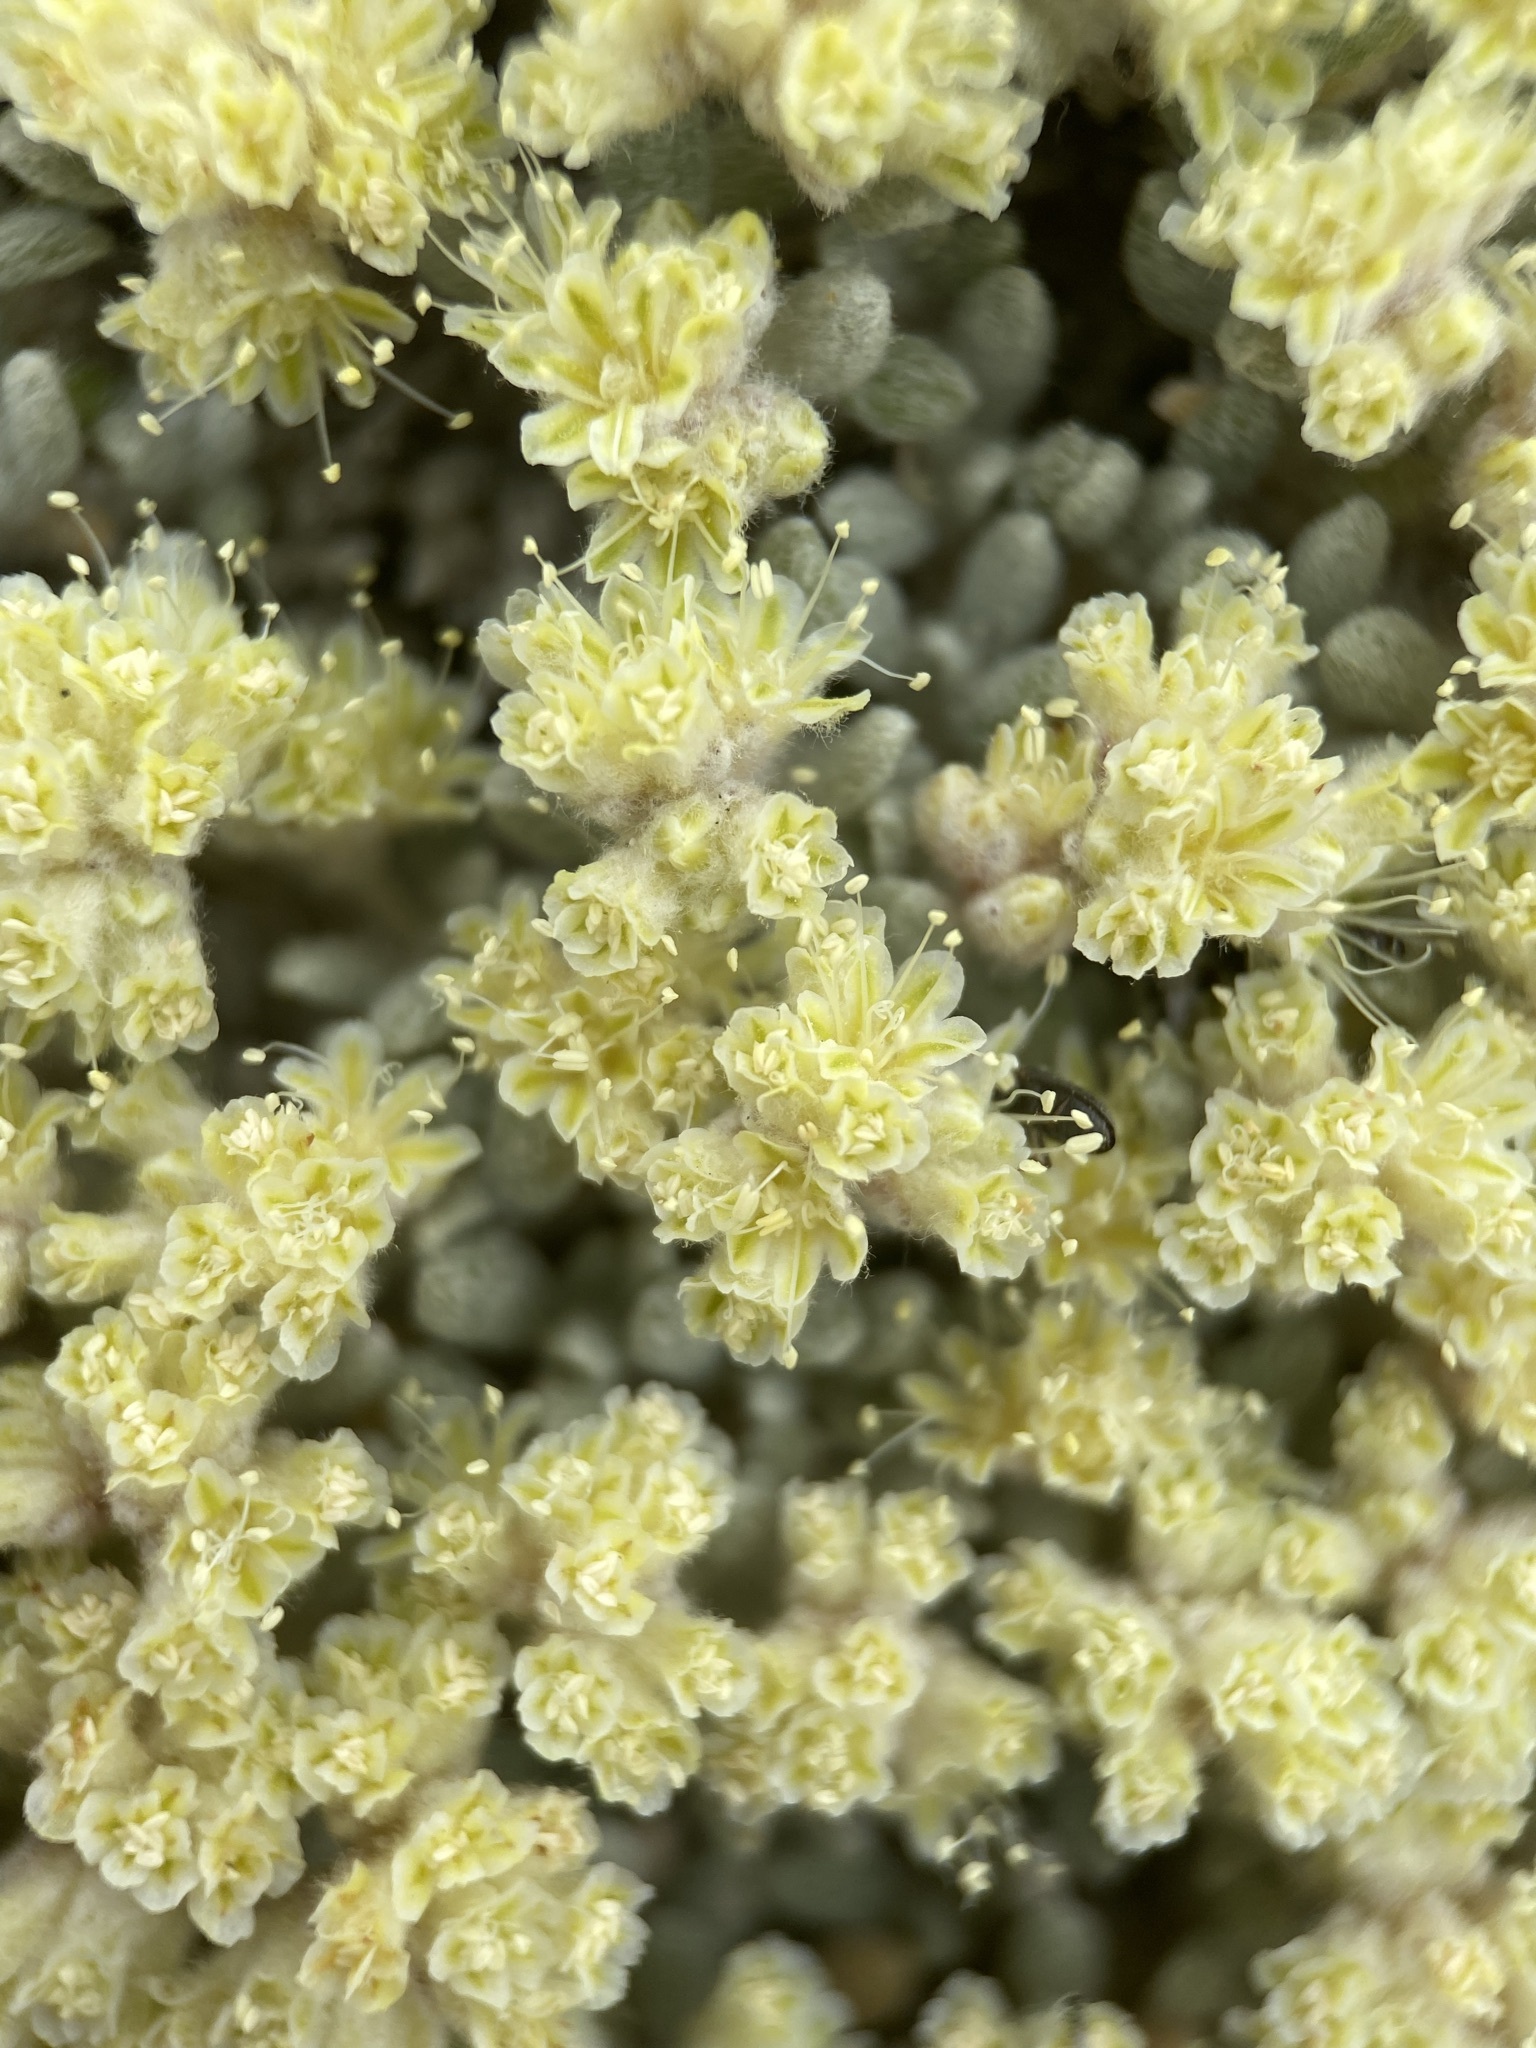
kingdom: Plantae
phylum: Tracheophyta
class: Magnoliopsida
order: Caryophyllales
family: Polygonaceae
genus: Eriogonum
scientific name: Eriogonum shockleyi
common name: Shockley's wild buckwheat
